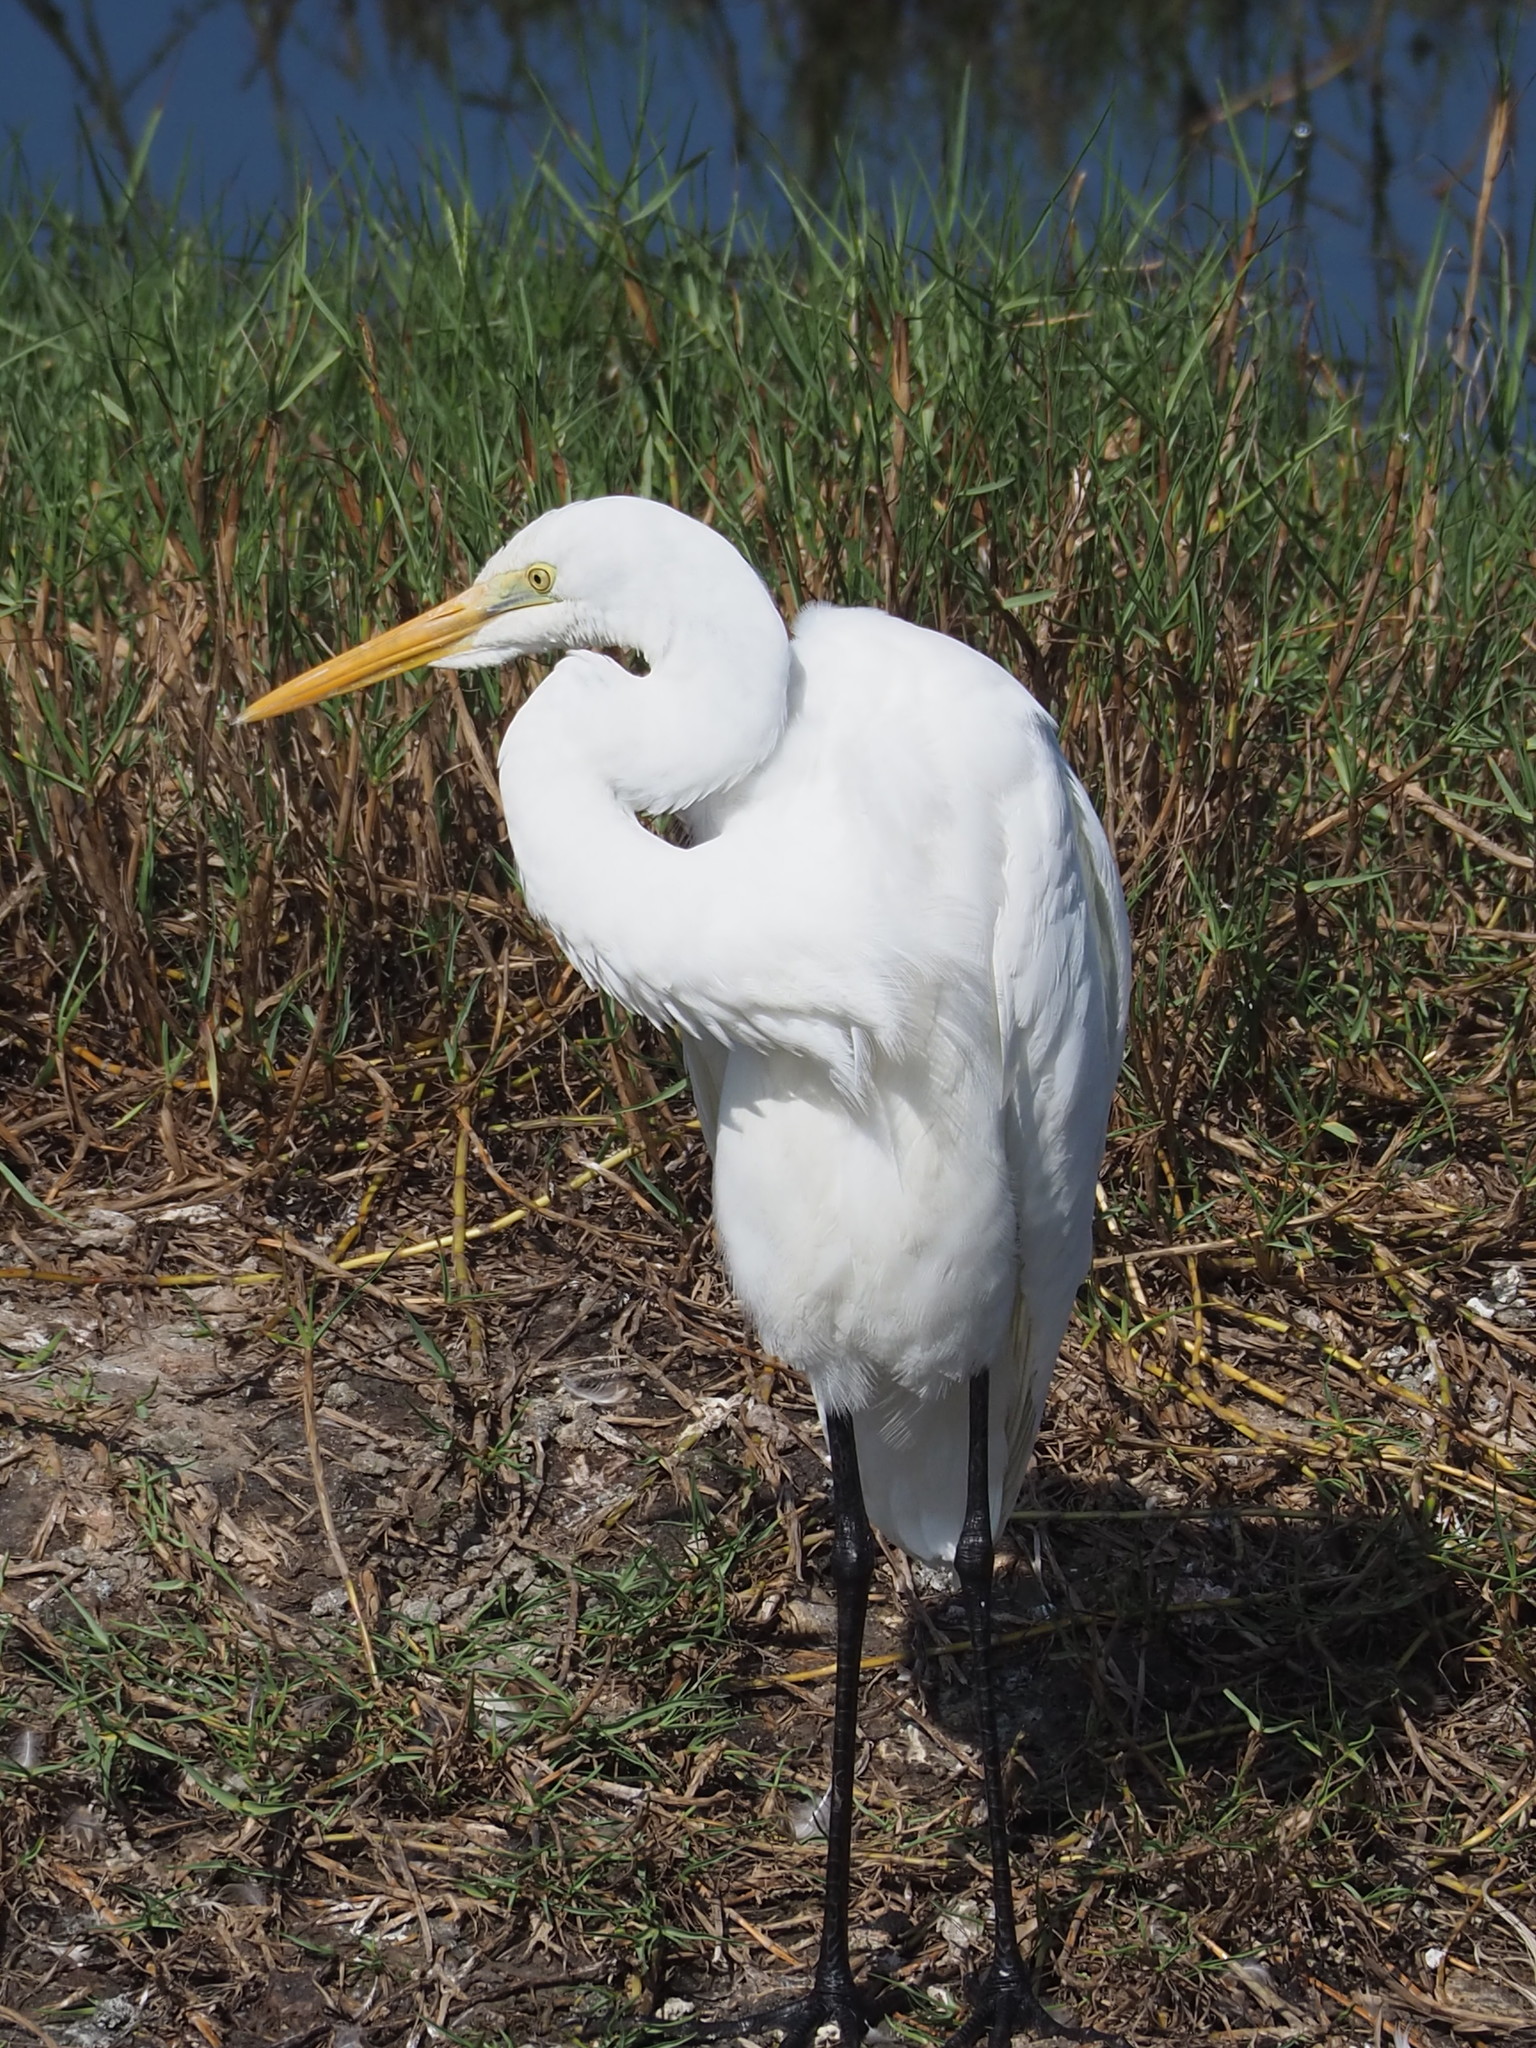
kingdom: Animalia
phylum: Chordata
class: Aves
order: Pelecaniformes
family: Ardeidae
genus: Ardea
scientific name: Ardea alba
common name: Great egret
